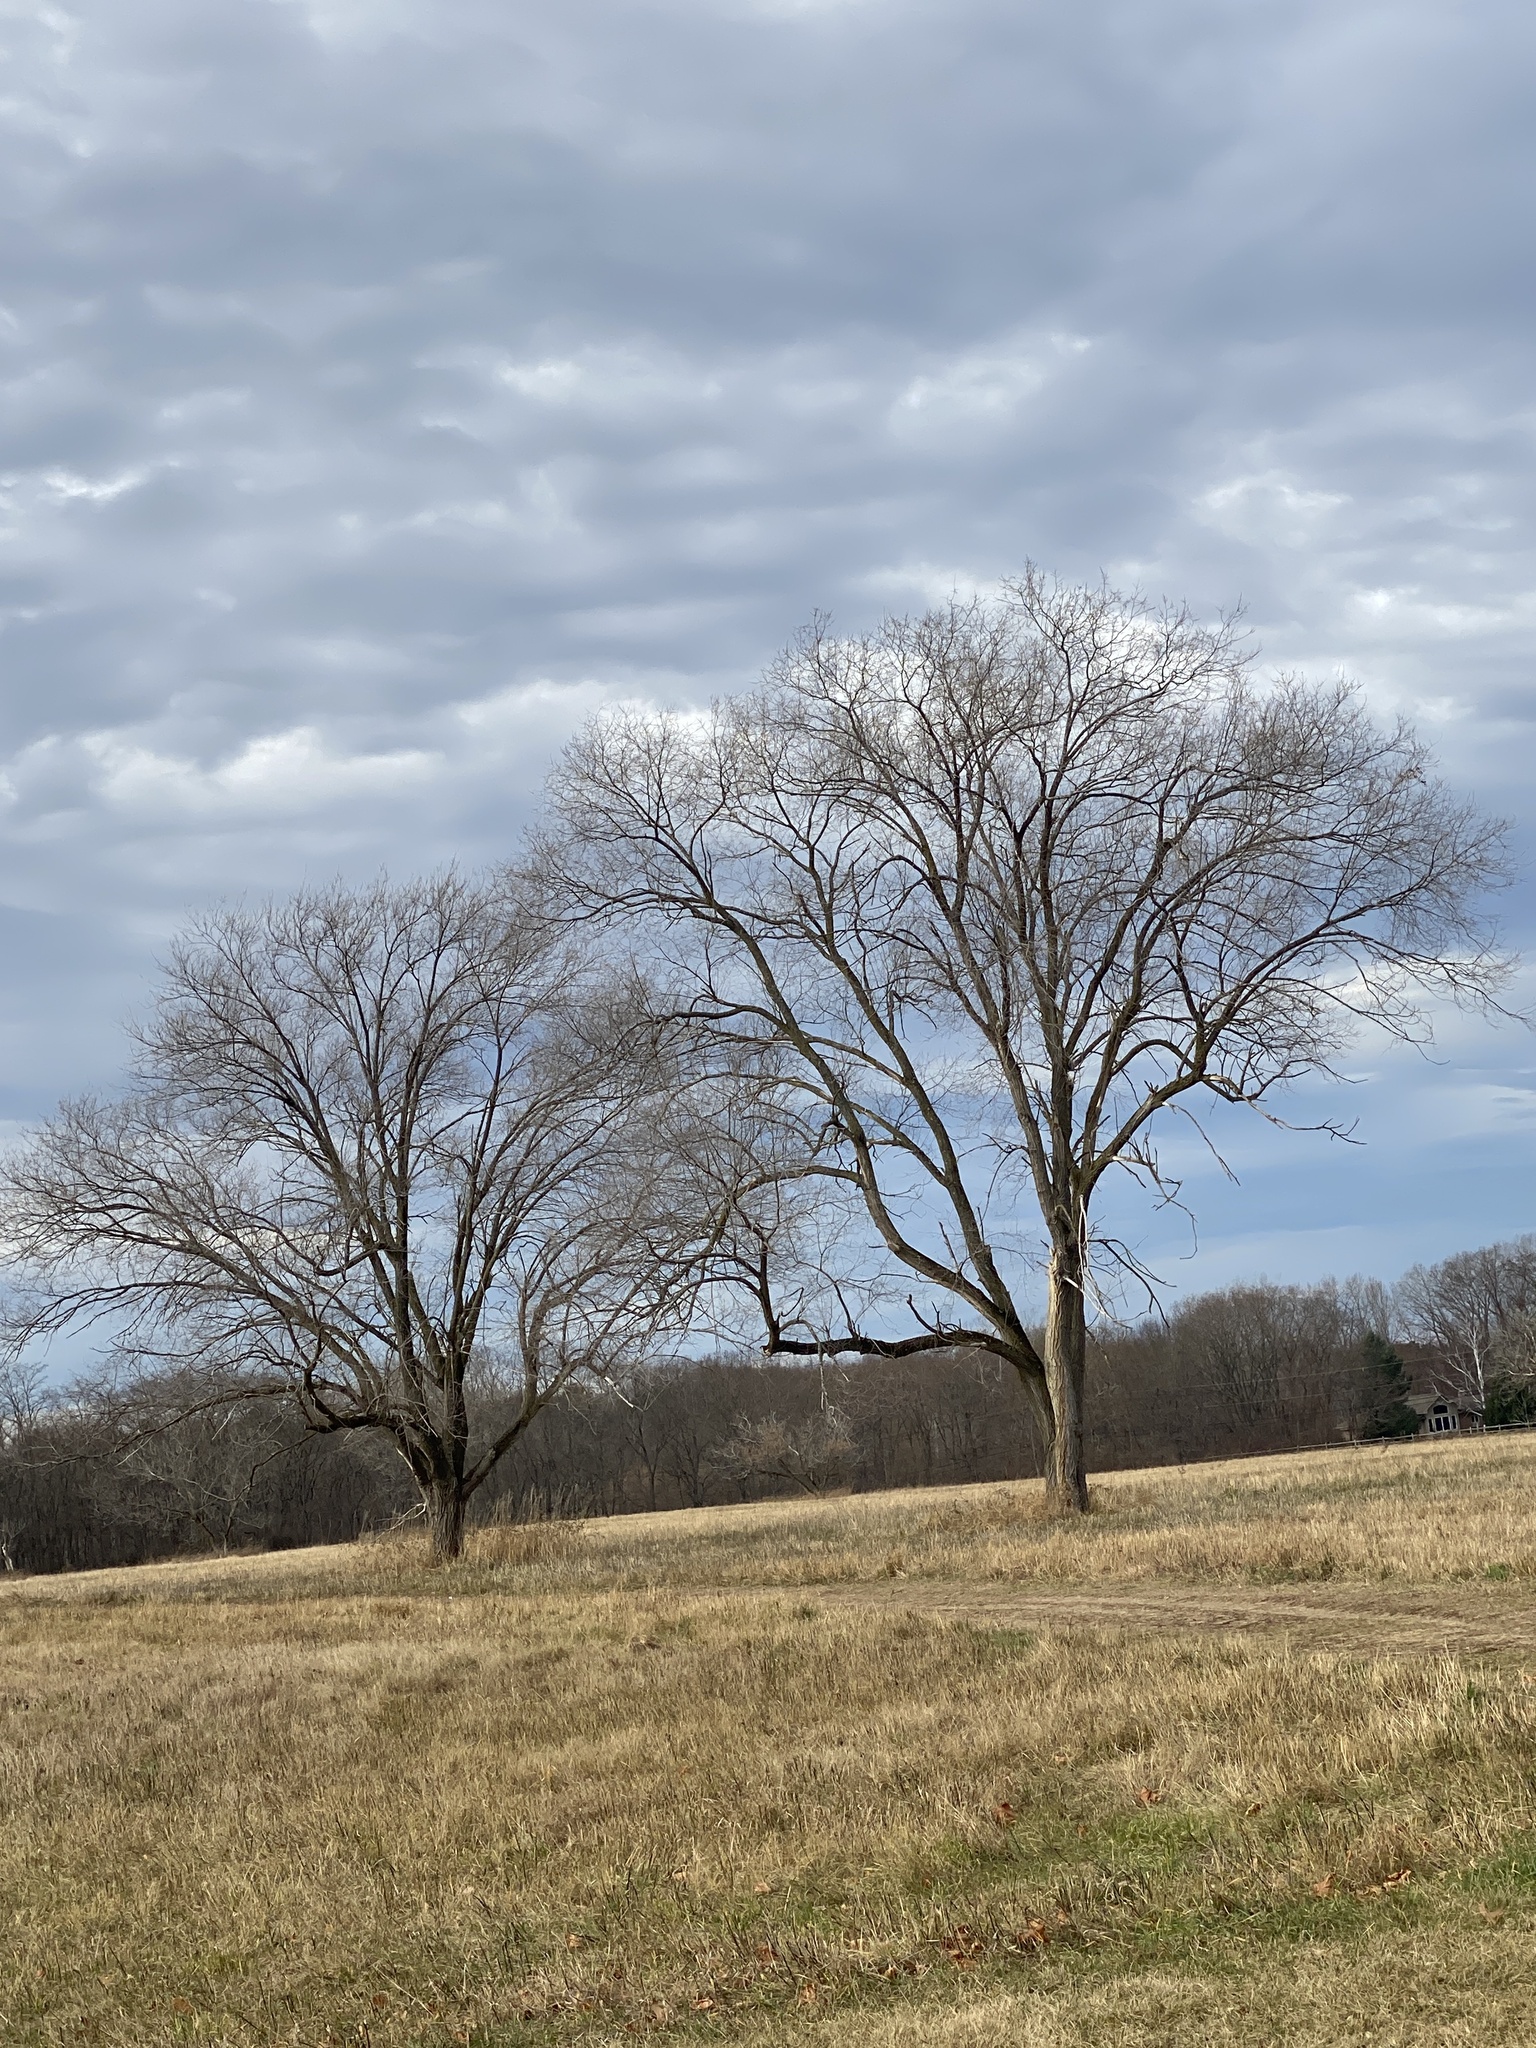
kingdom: Plantae
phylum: Tracheophyta
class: Magnoliopsida
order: Lamiales
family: Lamiaceae
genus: Lamium
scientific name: Lamium purpureum
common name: Red dead-nettle
